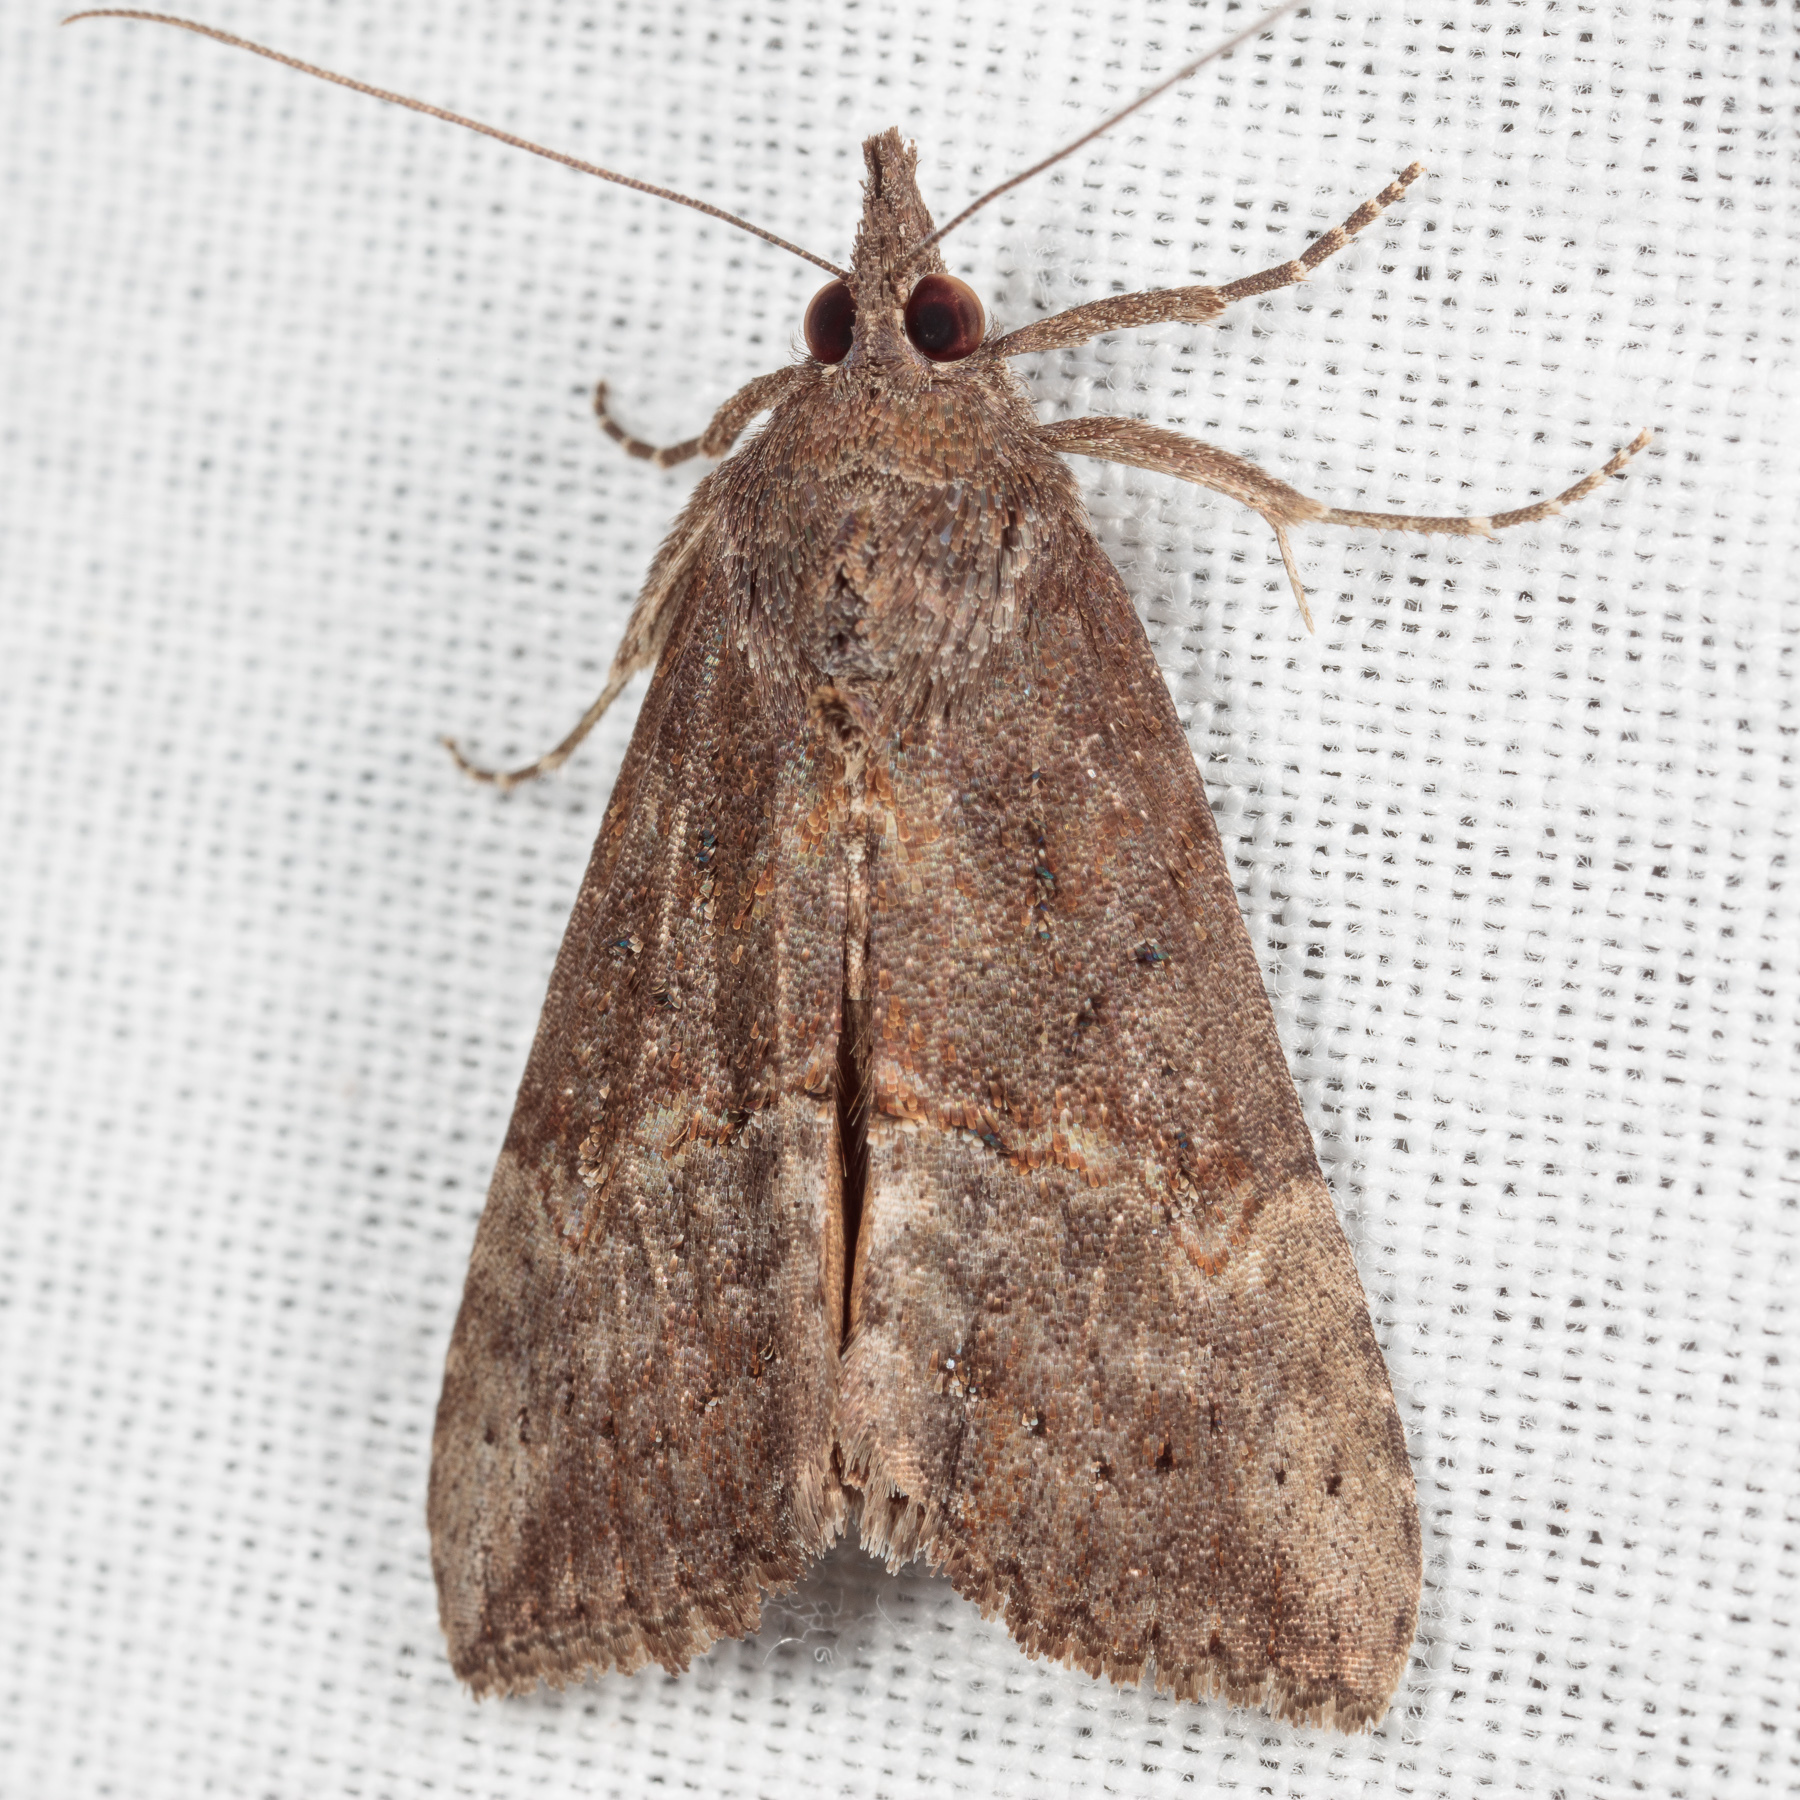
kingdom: Animalia
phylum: Arthropoda
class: Insecta
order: Lepidoptera
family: Erebidae
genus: Hypena
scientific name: Hypena scabra
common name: Green cloverworm
